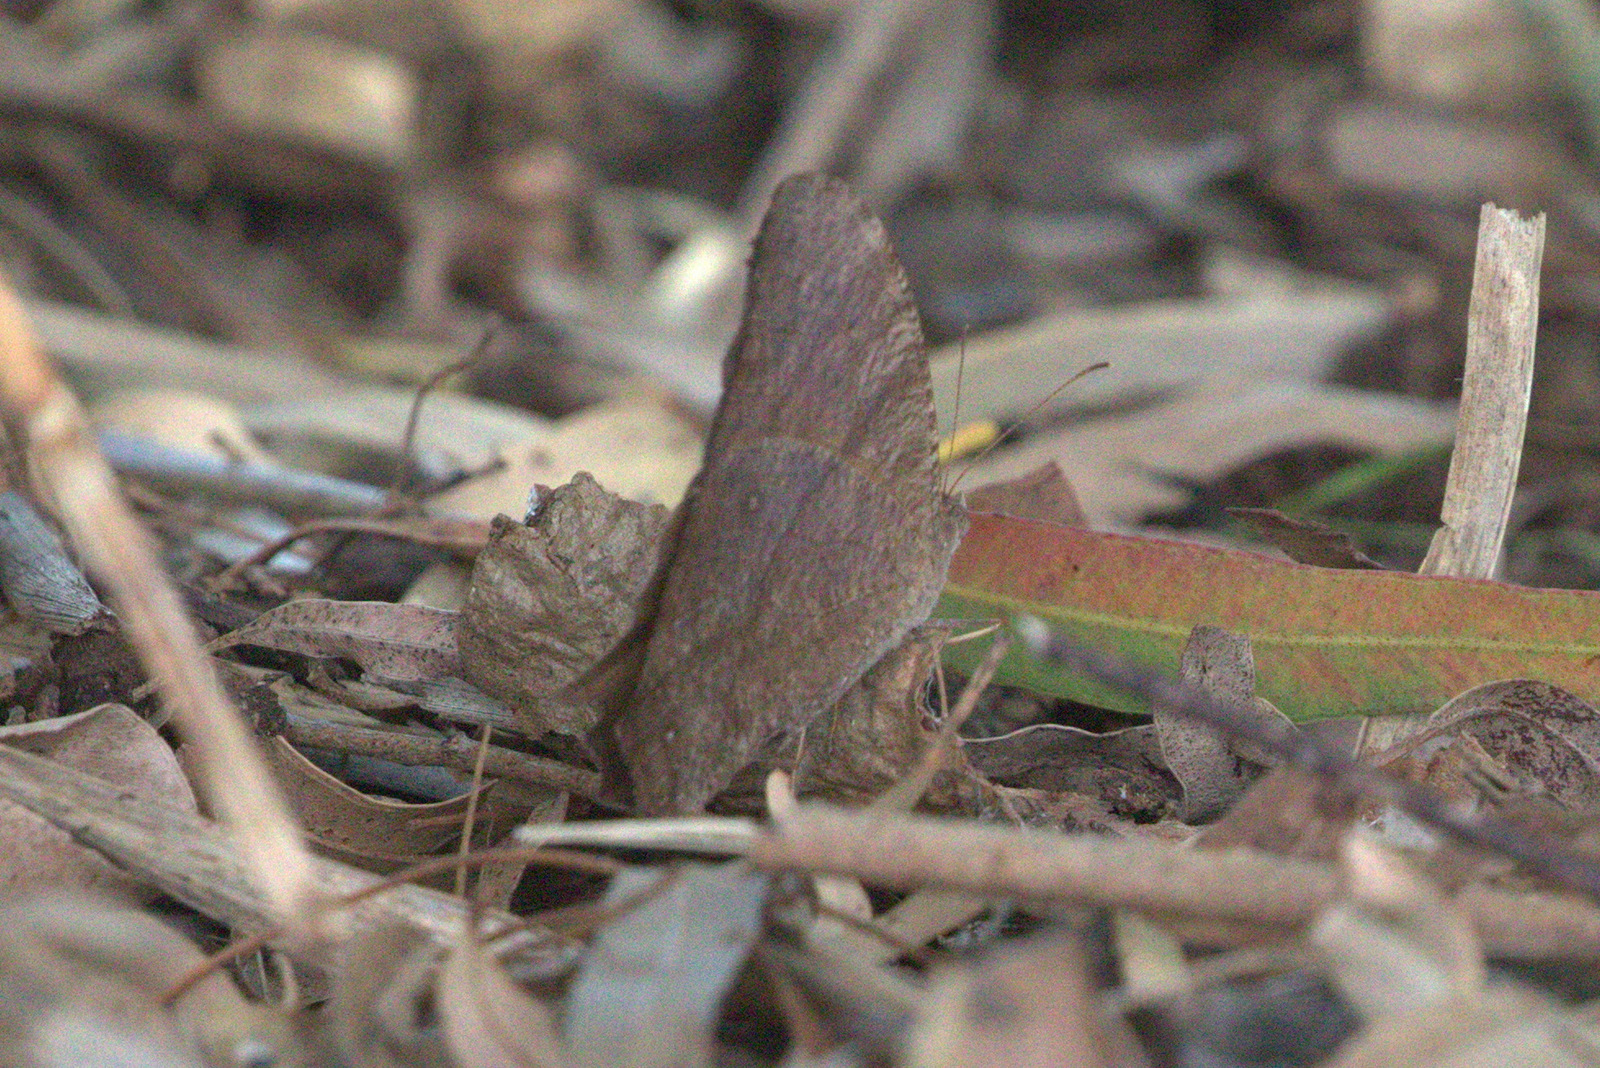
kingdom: Animalia
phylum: Arthropoda
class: Insecta
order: Lepidoptera
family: Nymphalidae
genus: Melanitis
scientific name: Melanitis leda
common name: Twilight brown
